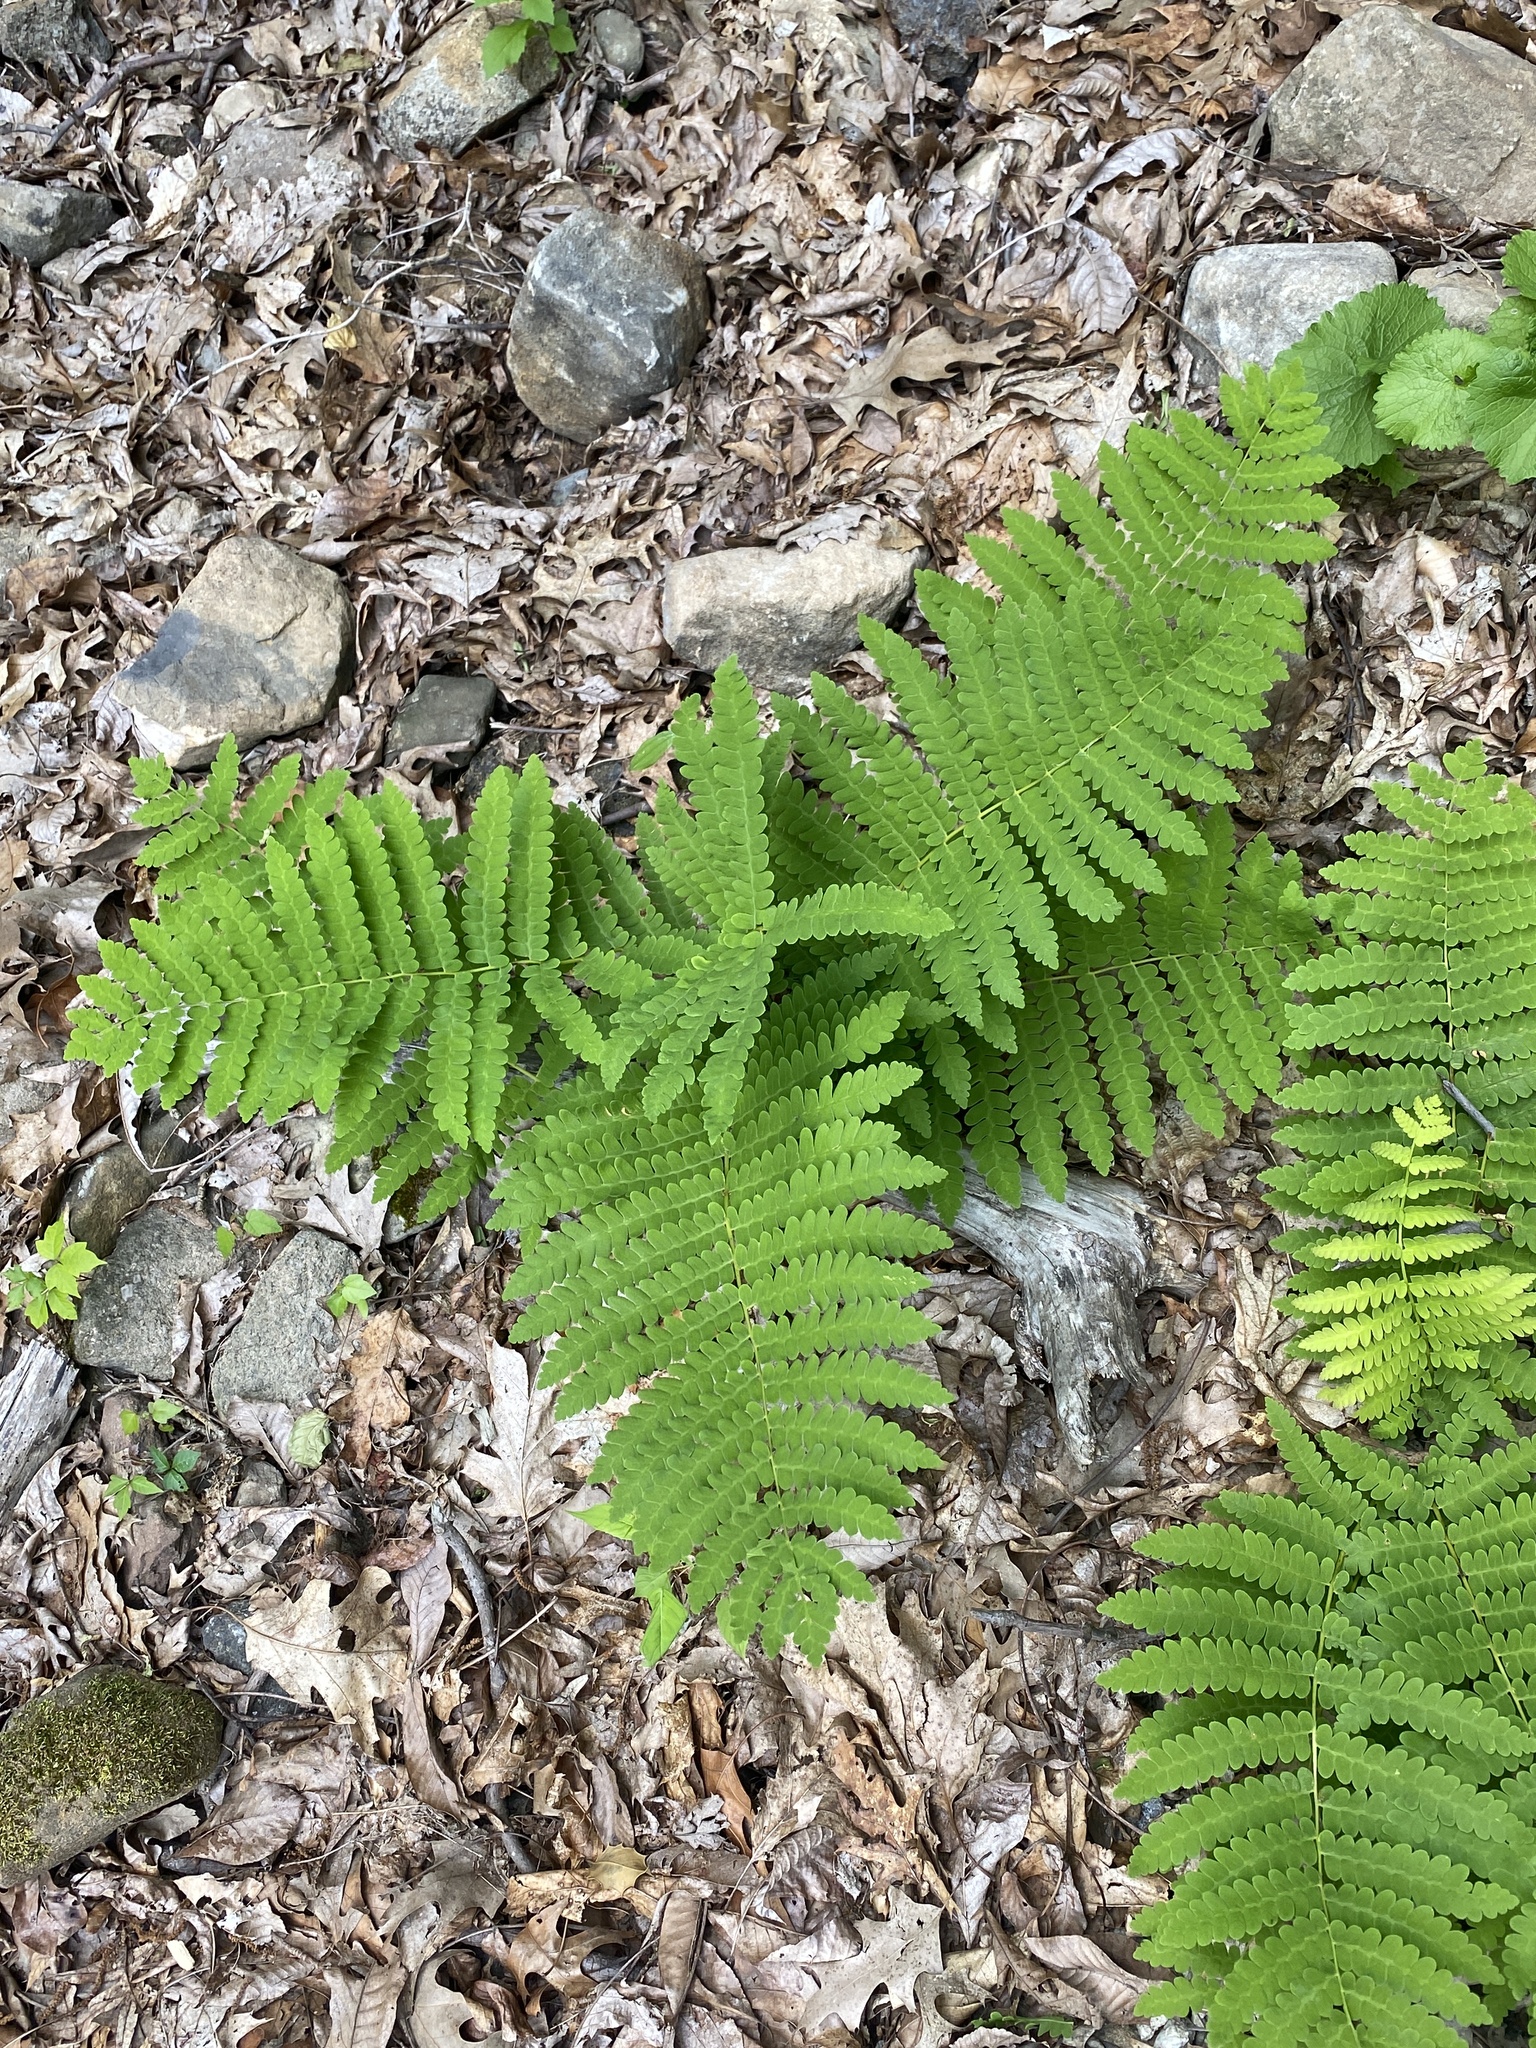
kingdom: Plantae
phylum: Tracheophyta
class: Polypodiopsida
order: Osmundales
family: Osmundaceae
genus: Claytosmunda
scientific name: Claytosmunda claytoniana
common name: Clayton's fern
